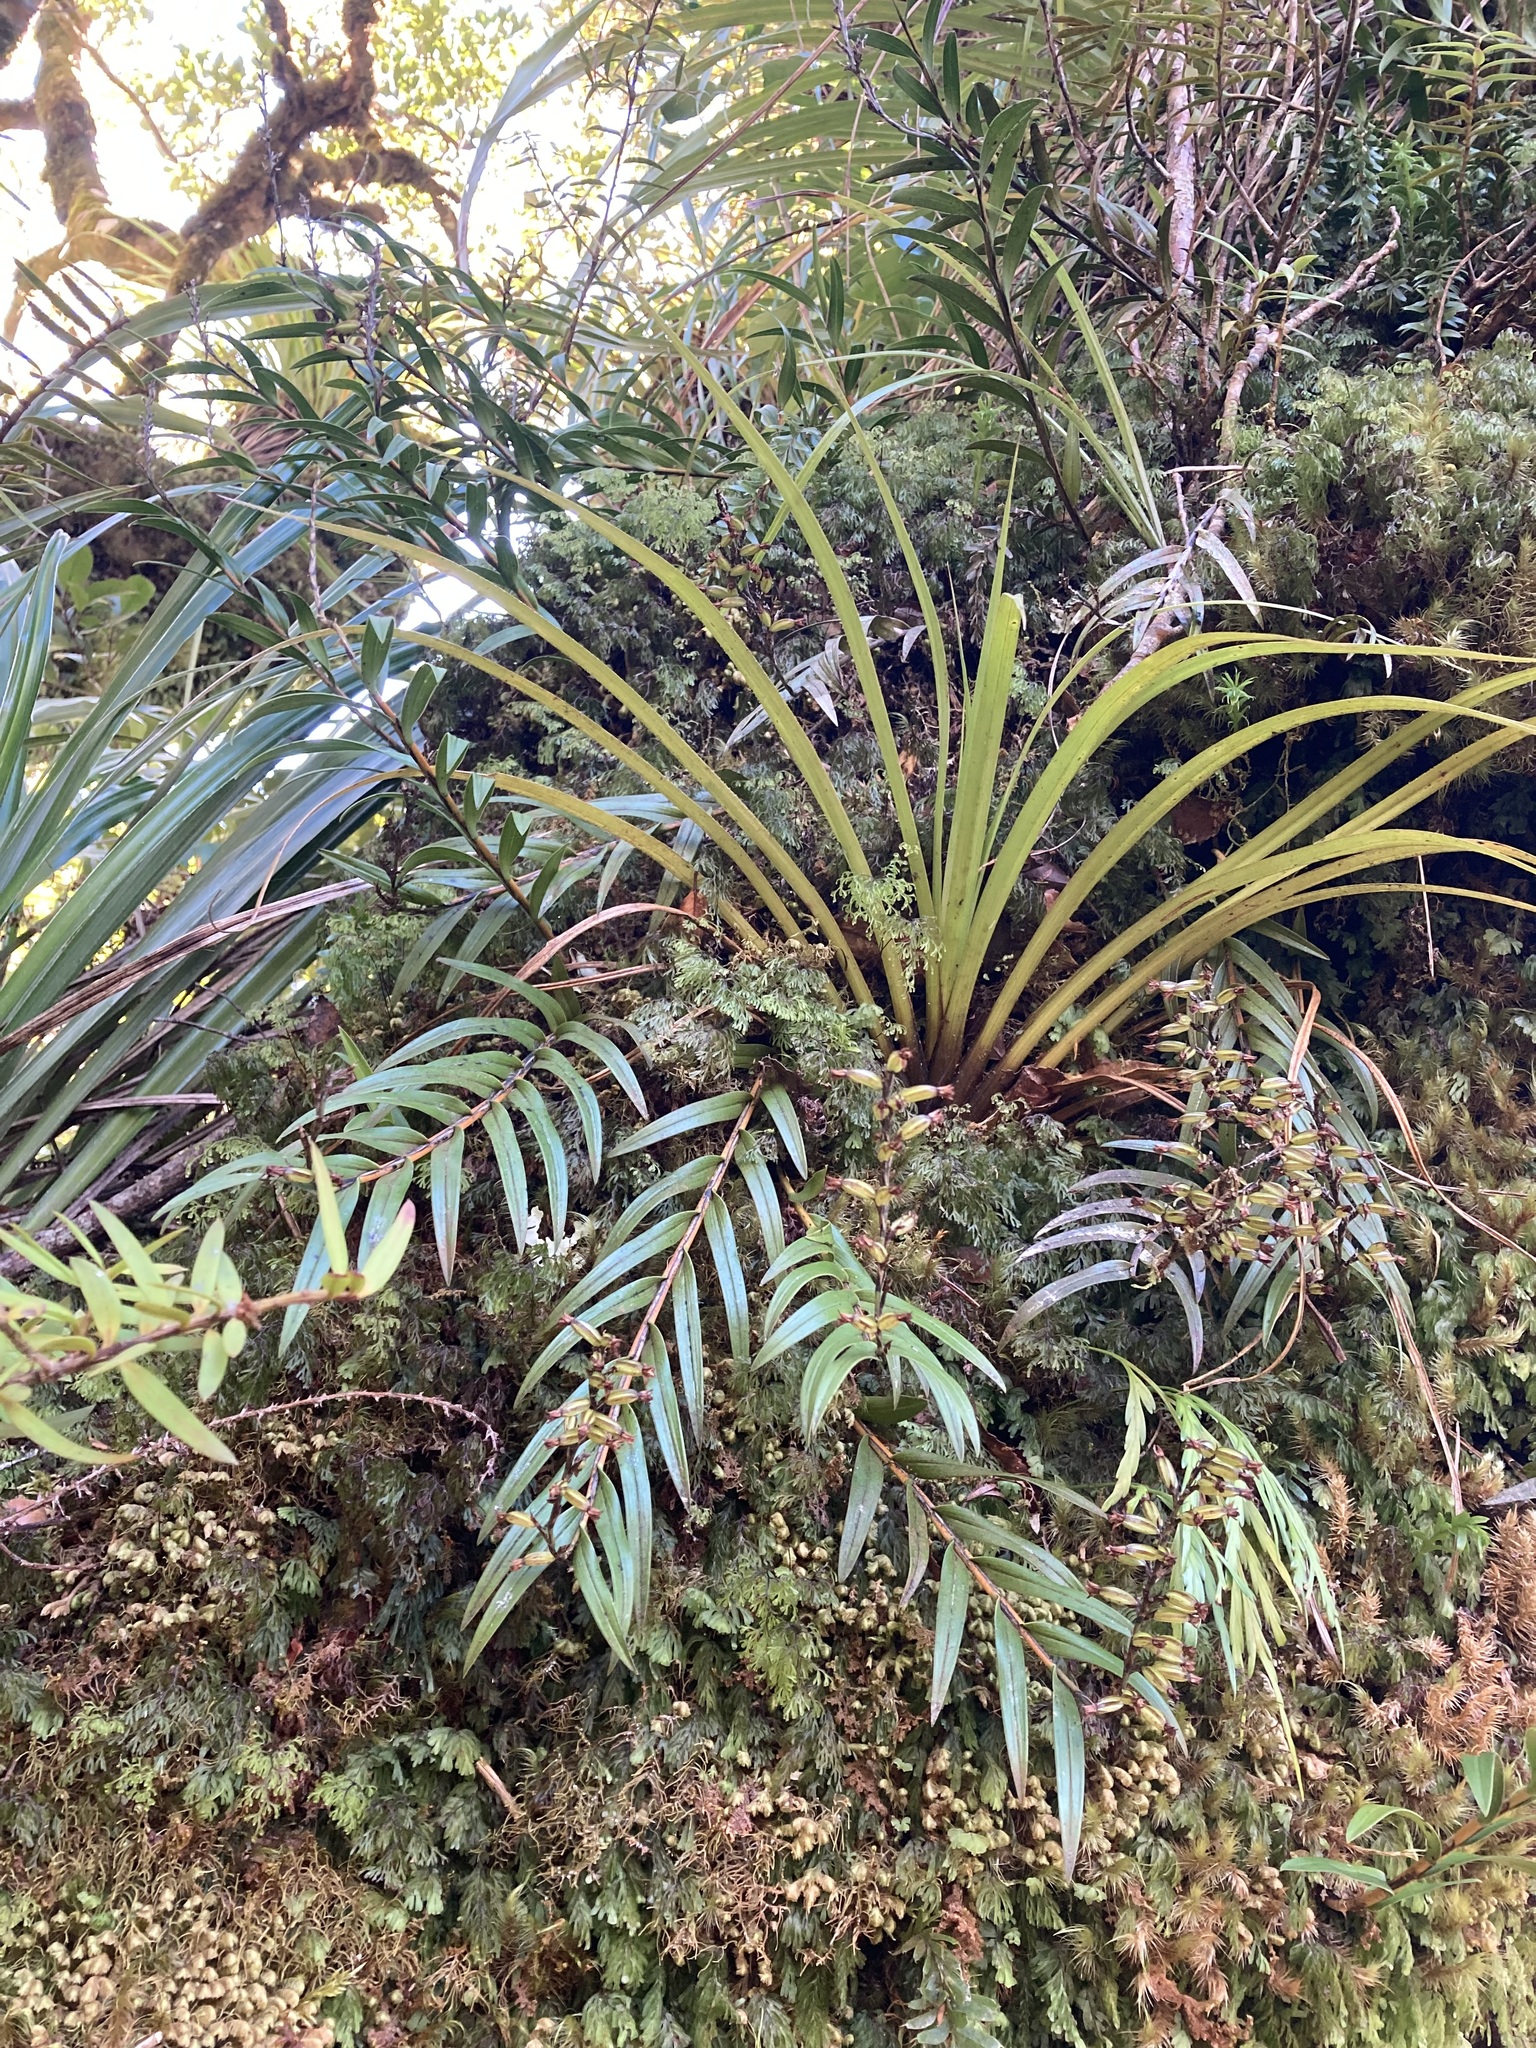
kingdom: Plantae
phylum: Tracheophyta
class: Liliopsida
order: Asparagales
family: Orchidaceae
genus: Earina
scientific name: Earina autumnalis
